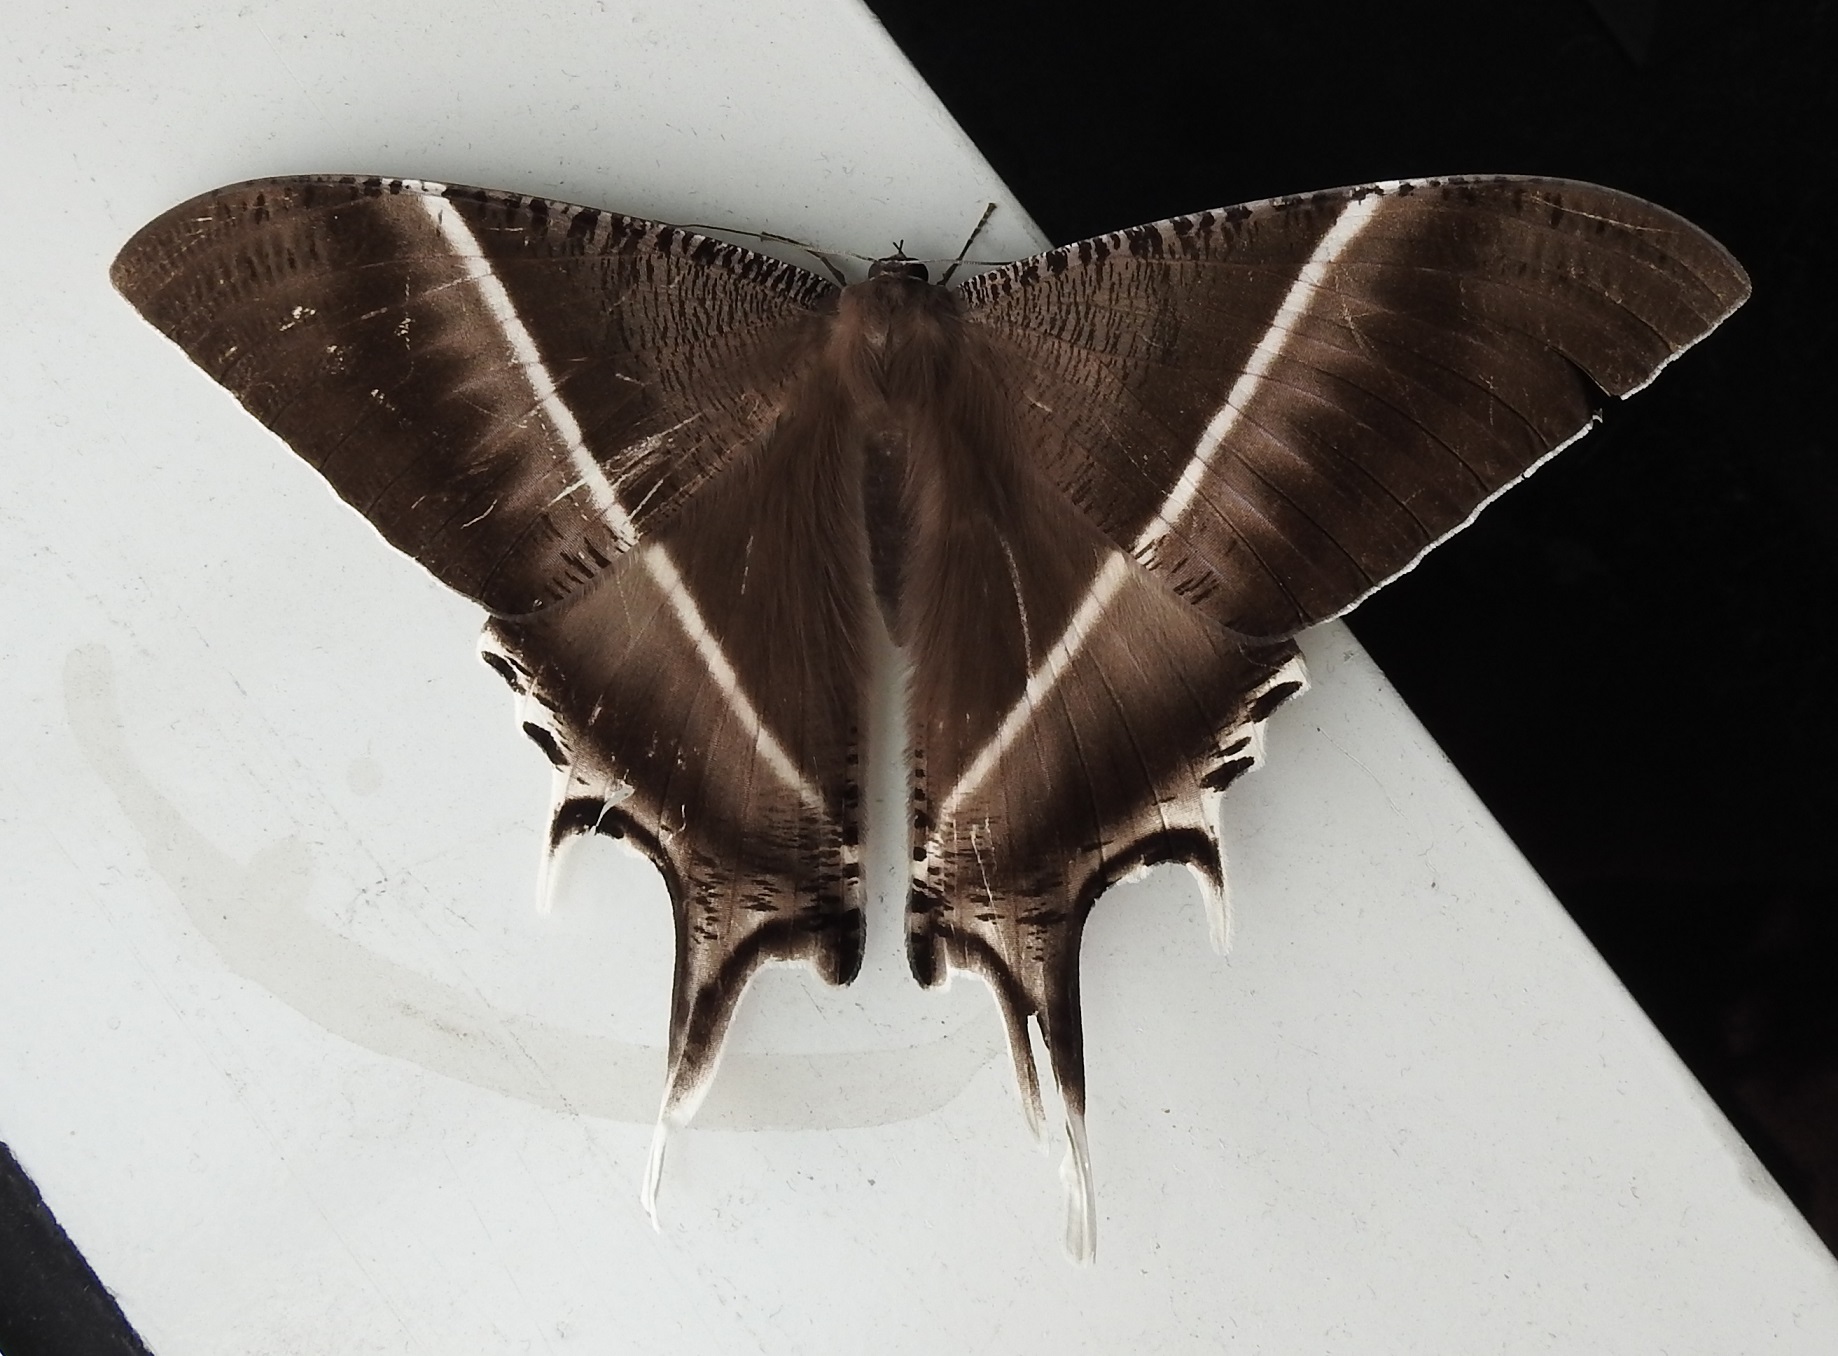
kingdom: Animalia
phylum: Arthropoda
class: Insecta
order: Lepidoptera
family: Uraniidae
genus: Lyssa
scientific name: Lyssa zampa
